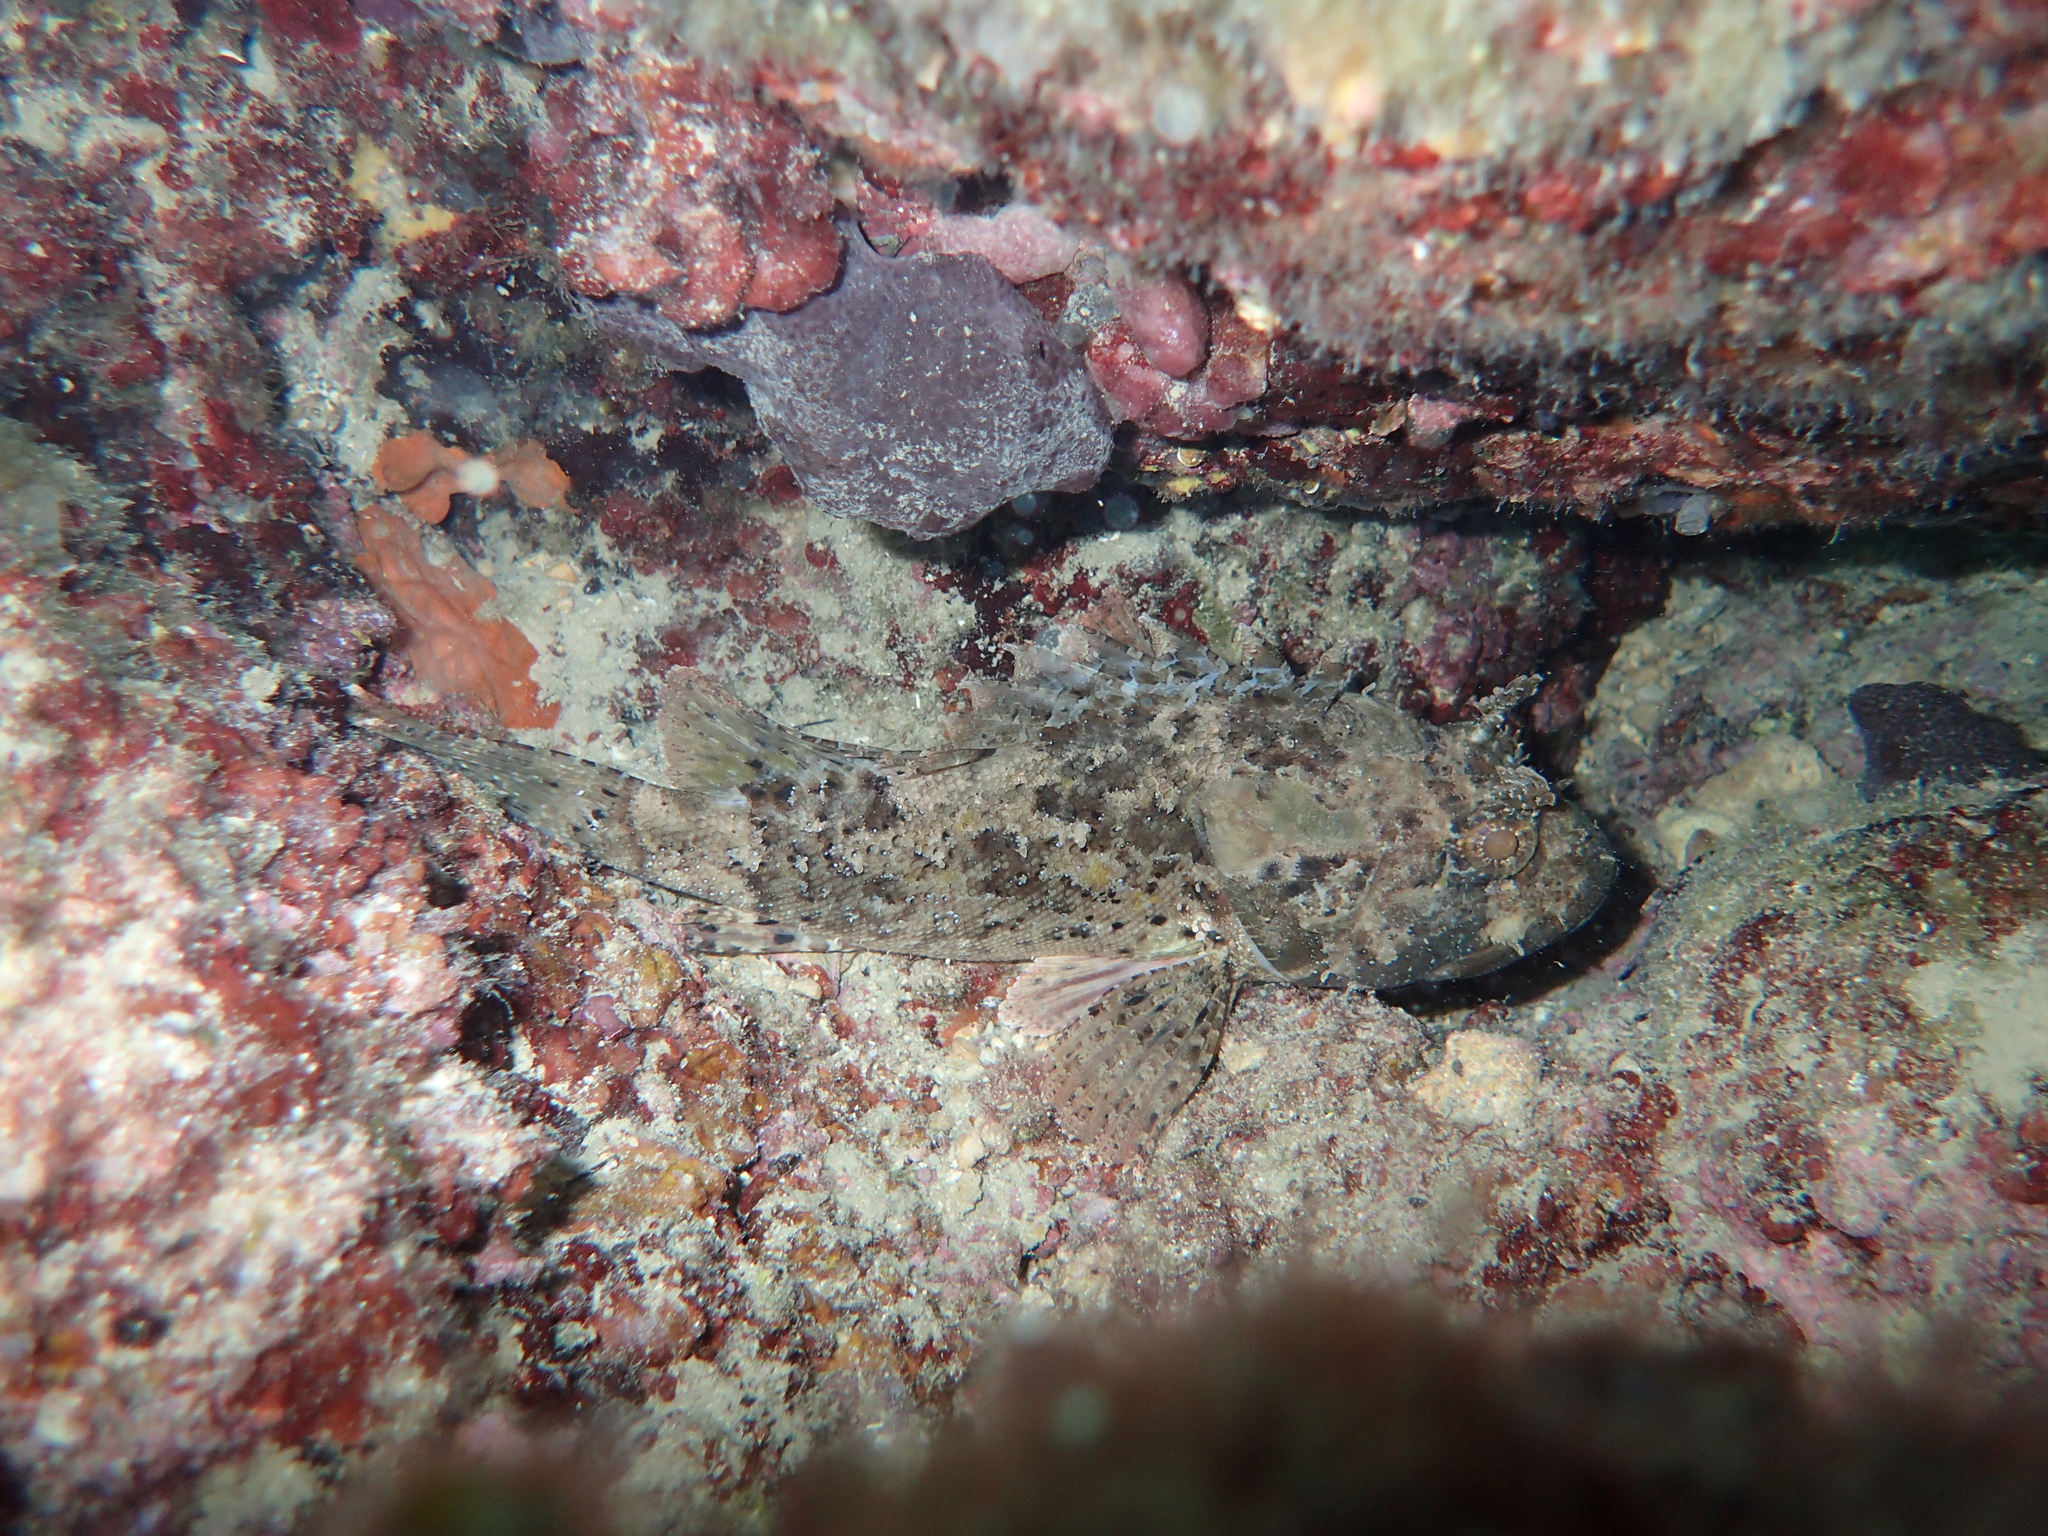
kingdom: Animalia
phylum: Chordata
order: Scorpaeniformes
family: Scorpaenidae
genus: Scorpaena
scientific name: Scorpaena porcus
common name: Black scorpionfish
